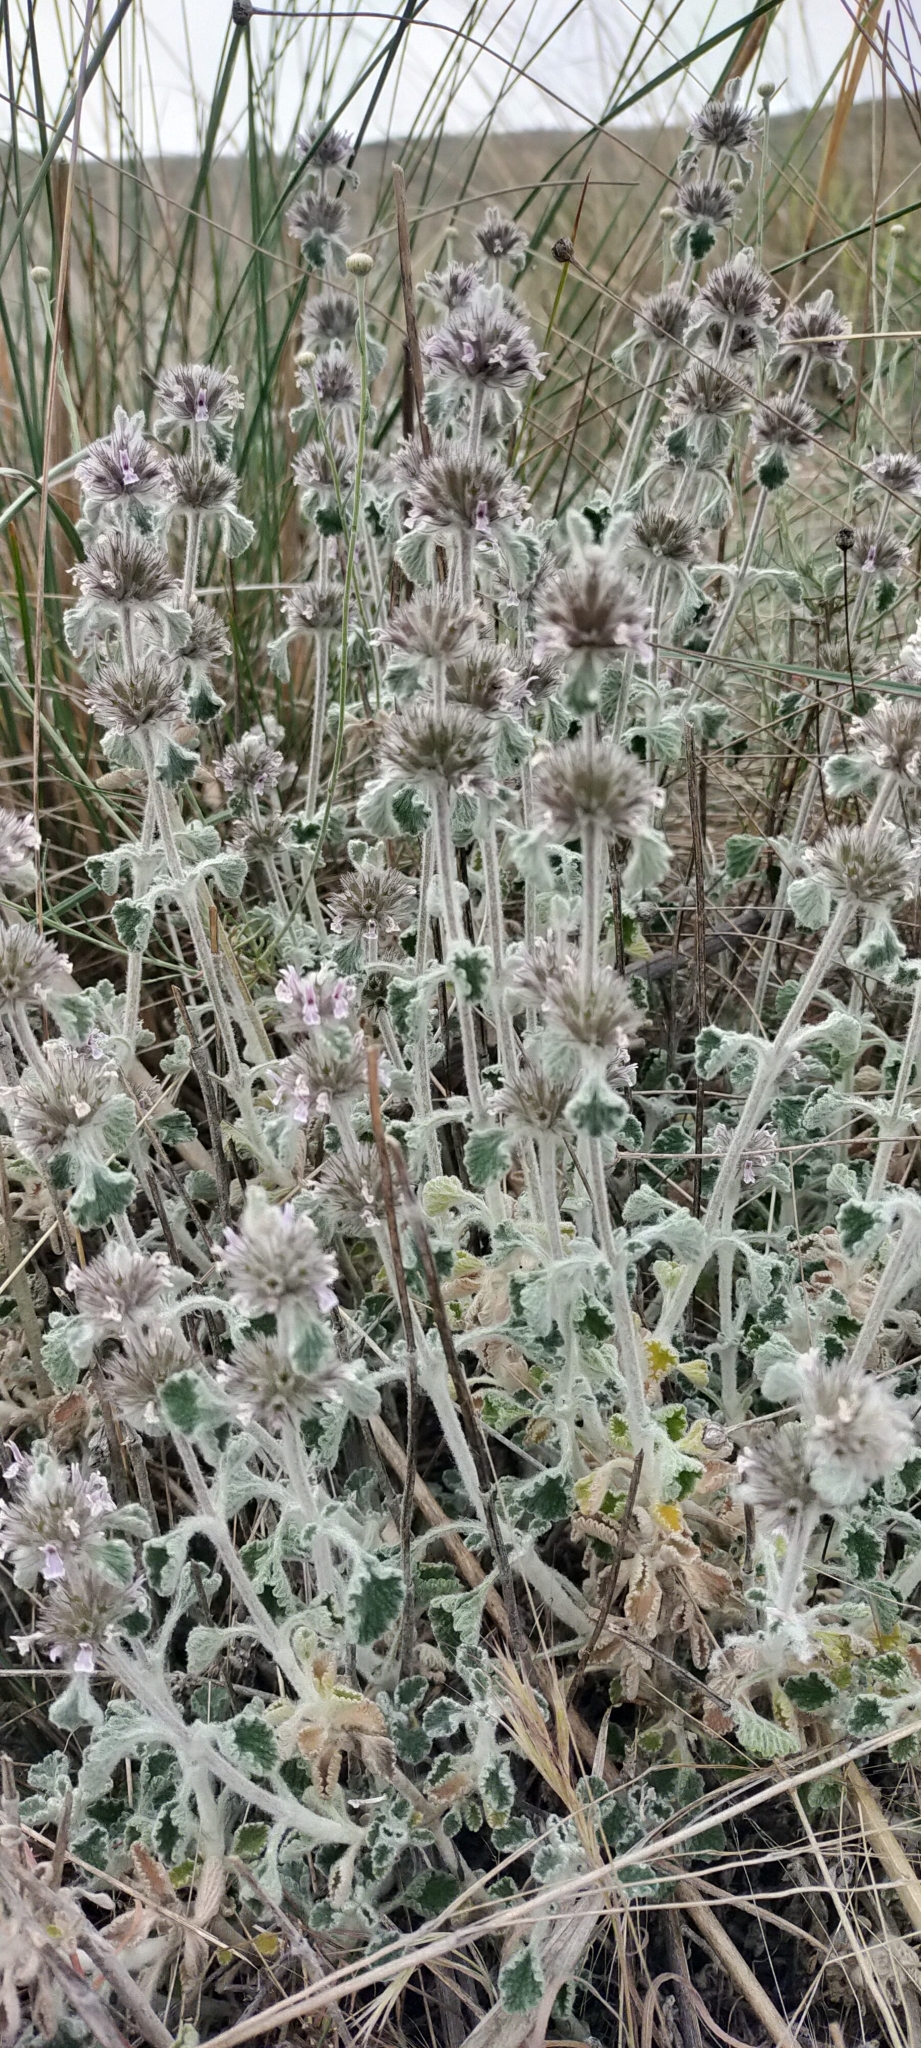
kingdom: Plantae
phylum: Tracheophyta
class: Magnoliopsida
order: Lamiales
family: Lamiaceae
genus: Marrubium
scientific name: Marrubium supinum
